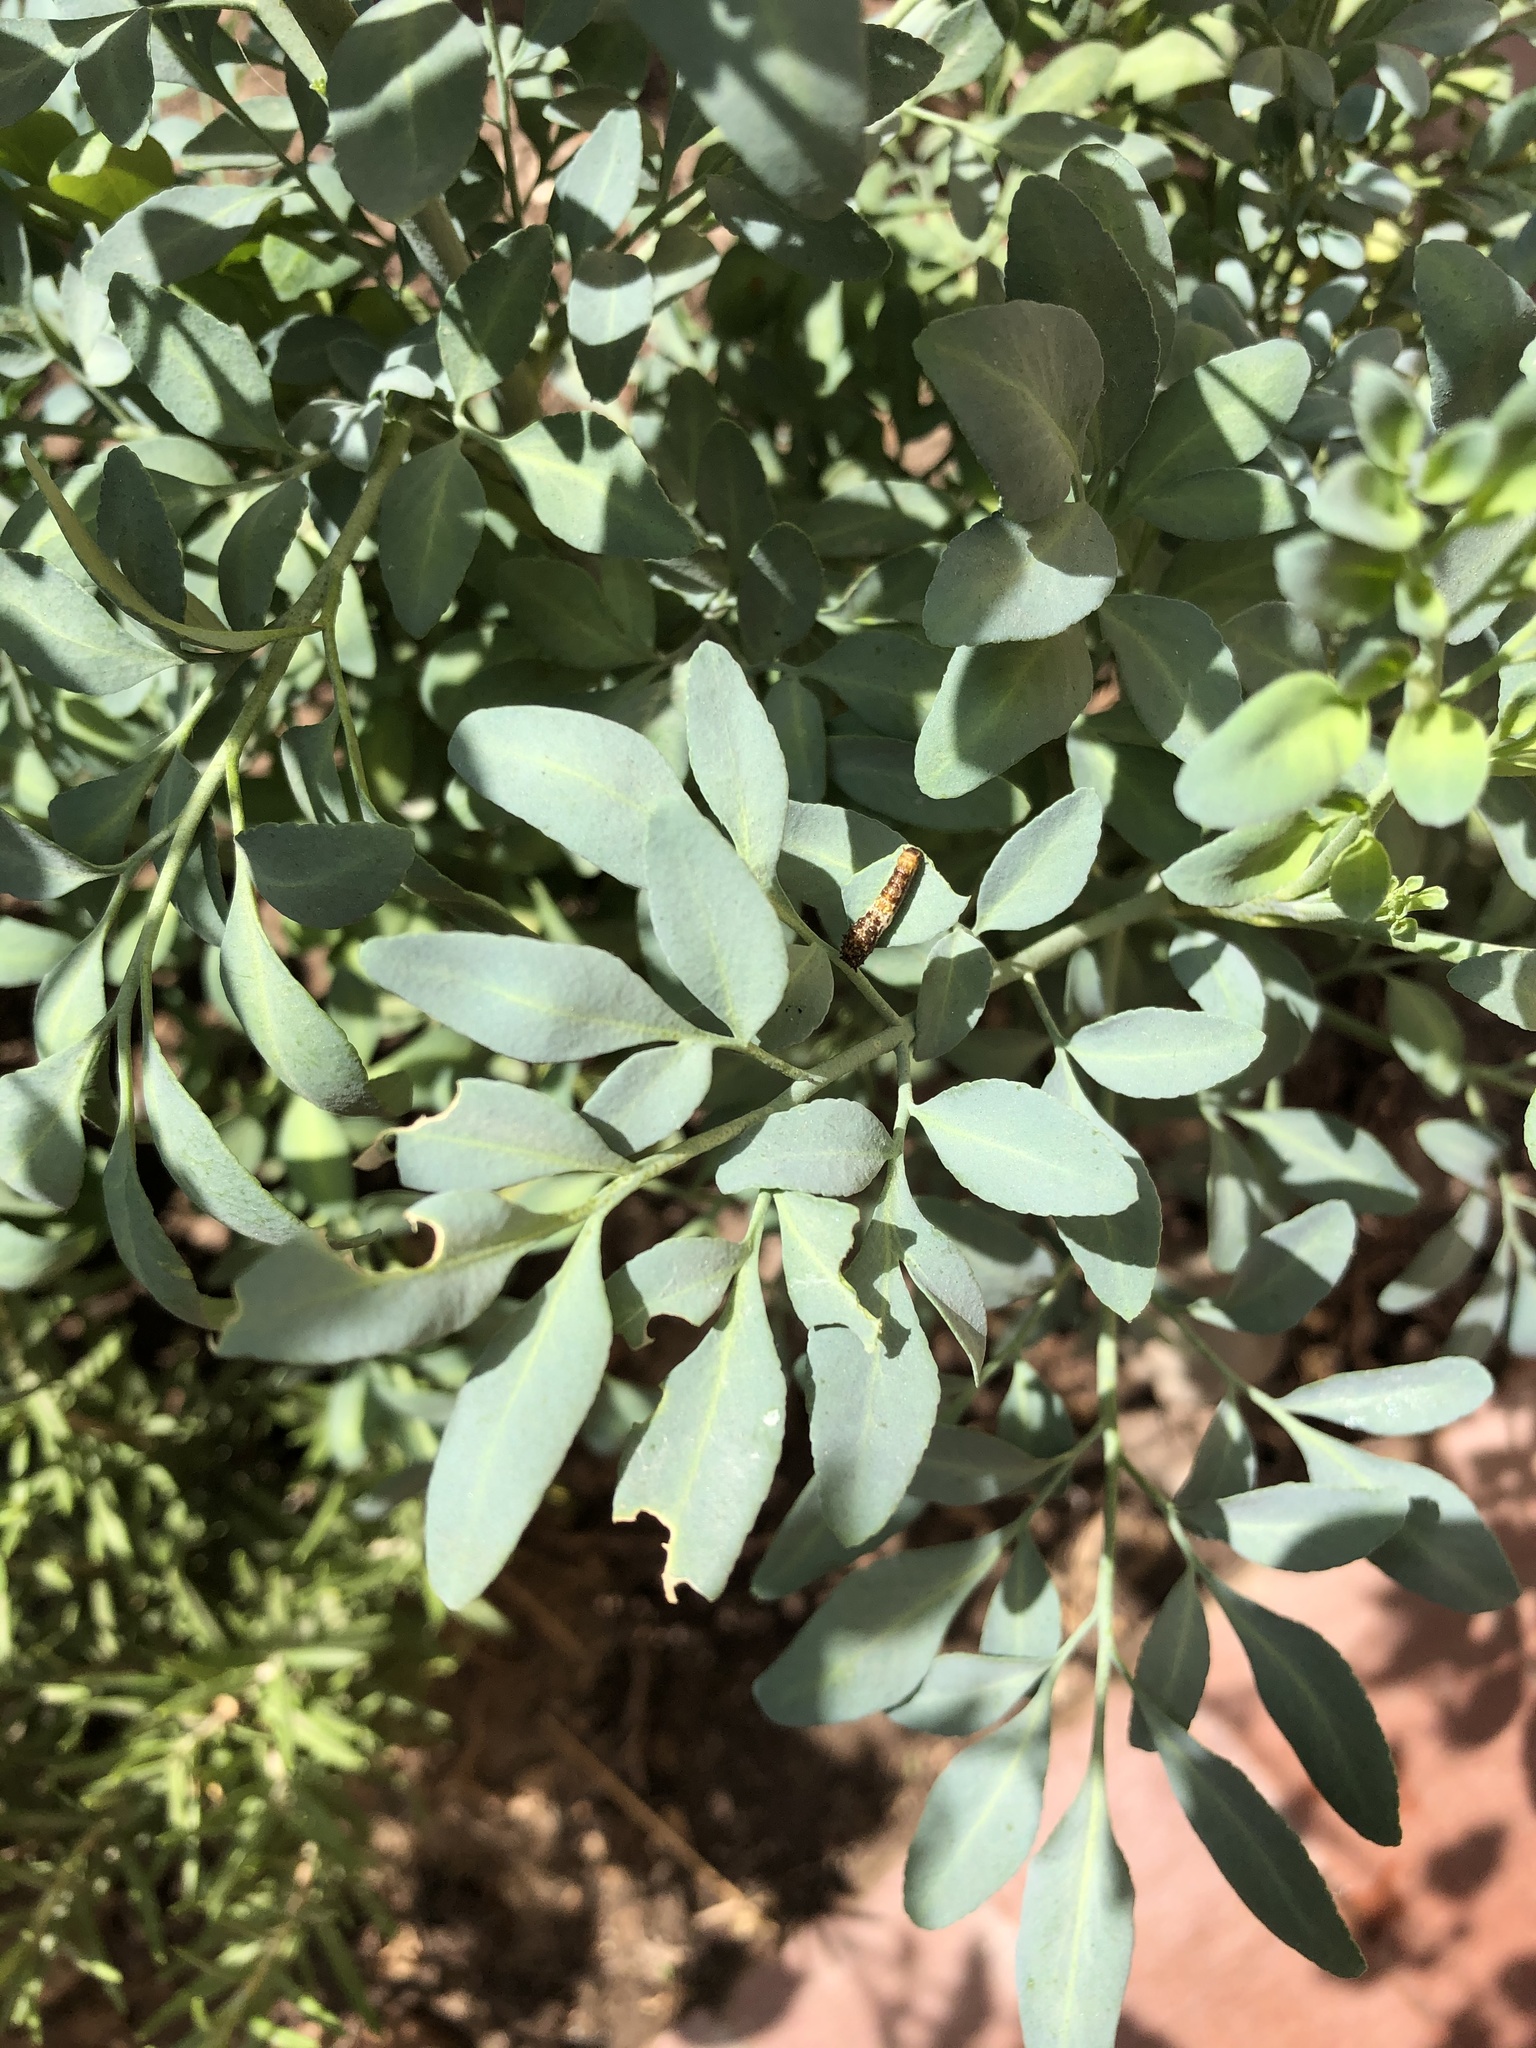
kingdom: Animalia
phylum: Arthropoda
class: Insecta
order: Lepidoptera
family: Papilionidae
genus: Heraclides
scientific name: Heraclides pallas
